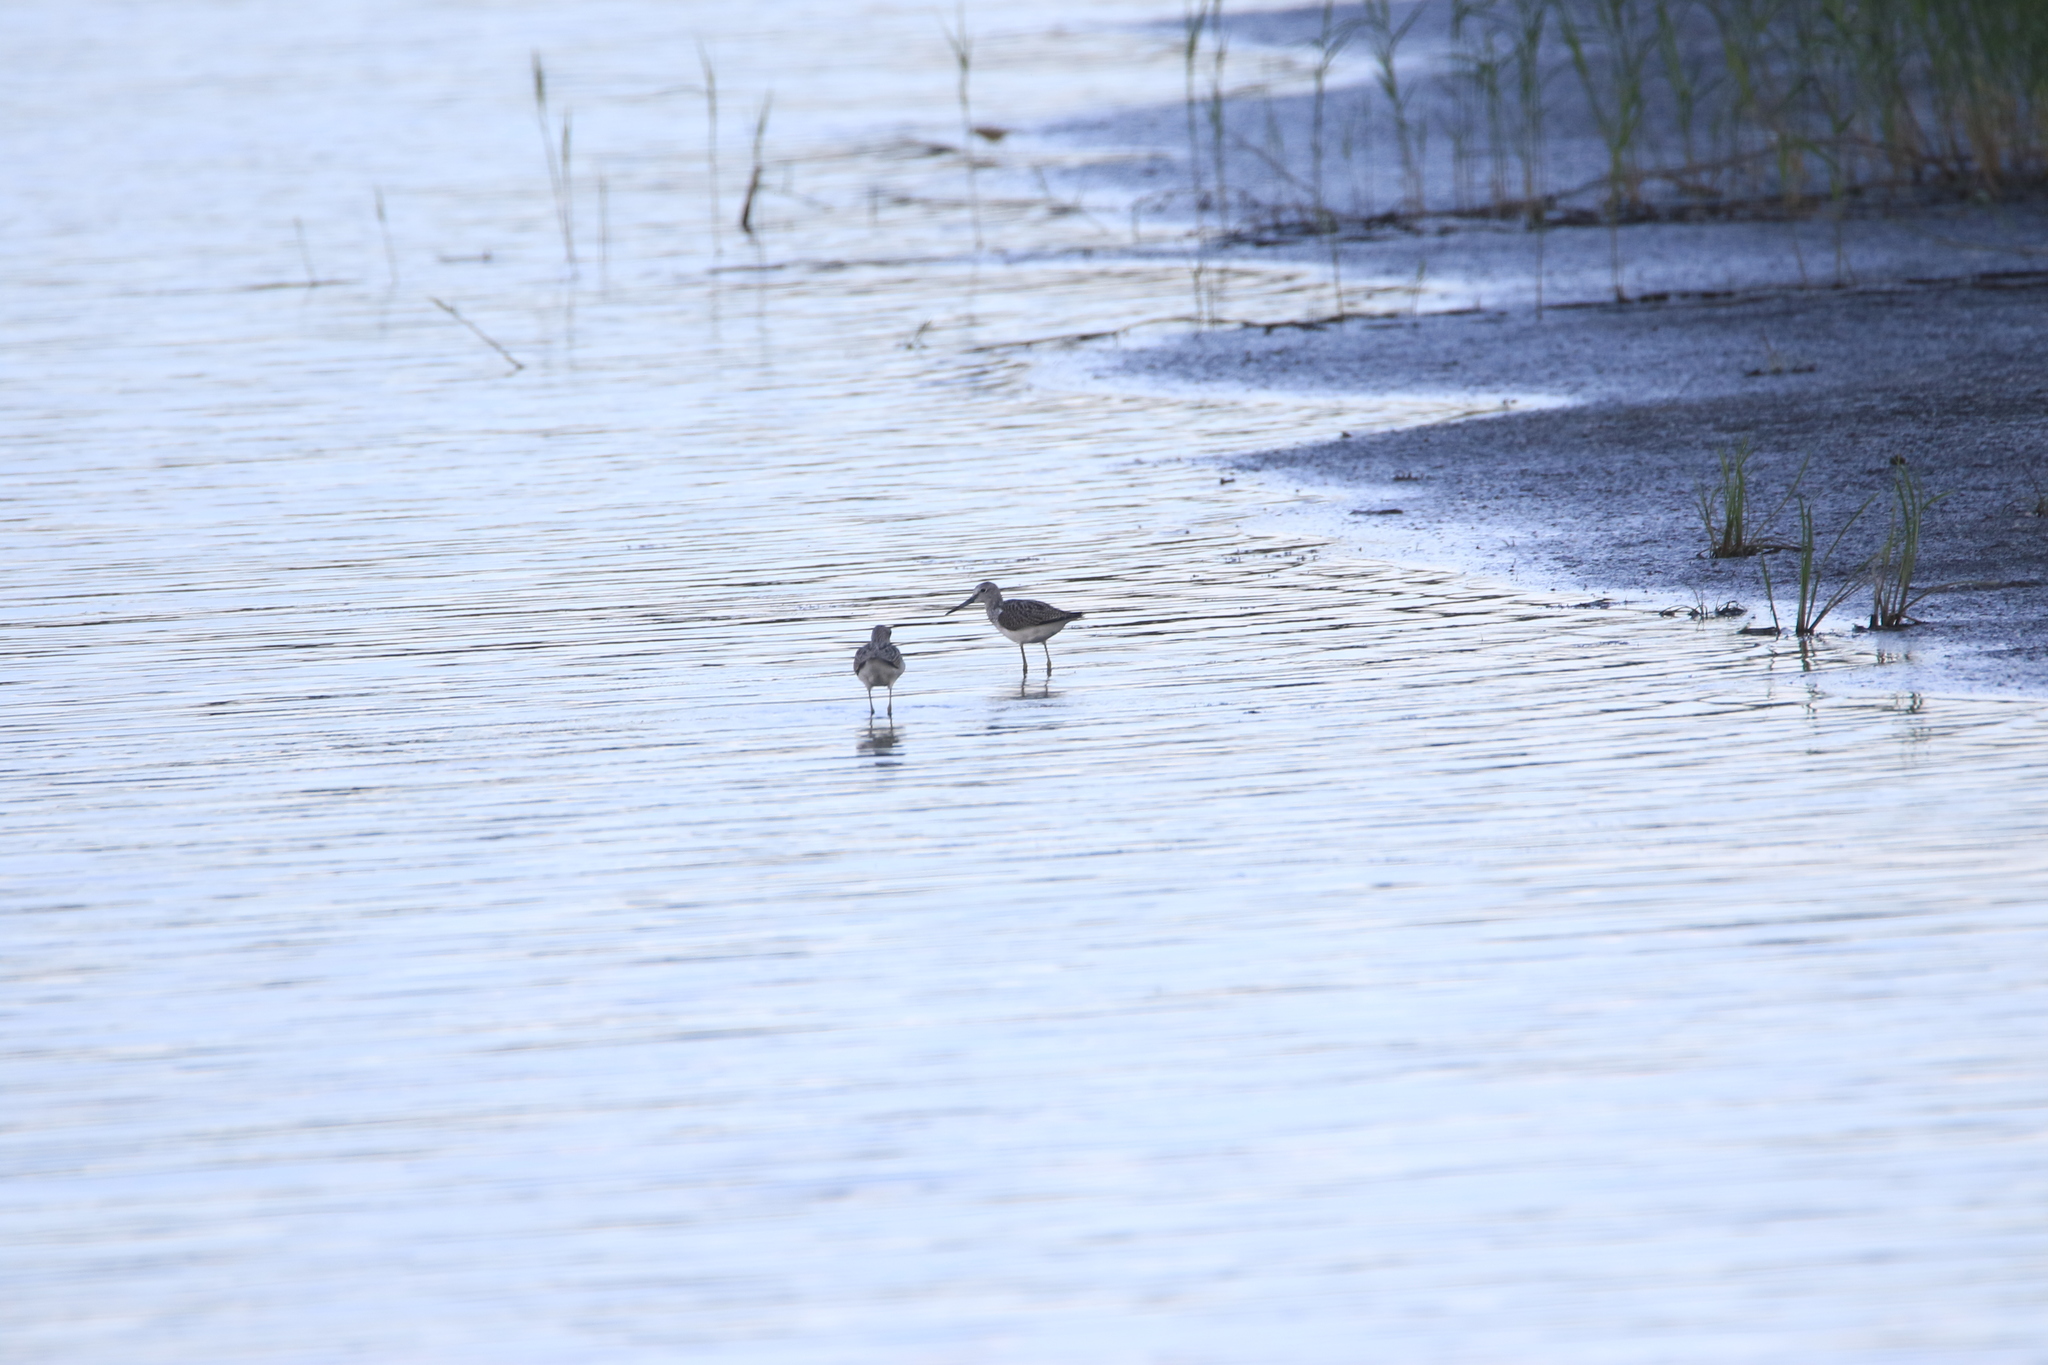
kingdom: Animalia
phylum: Chordata
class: Aves
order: Charadriiformes
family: Scolopacidae
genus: Tringa
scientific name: Tringa nebularia
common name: Common greenshank
